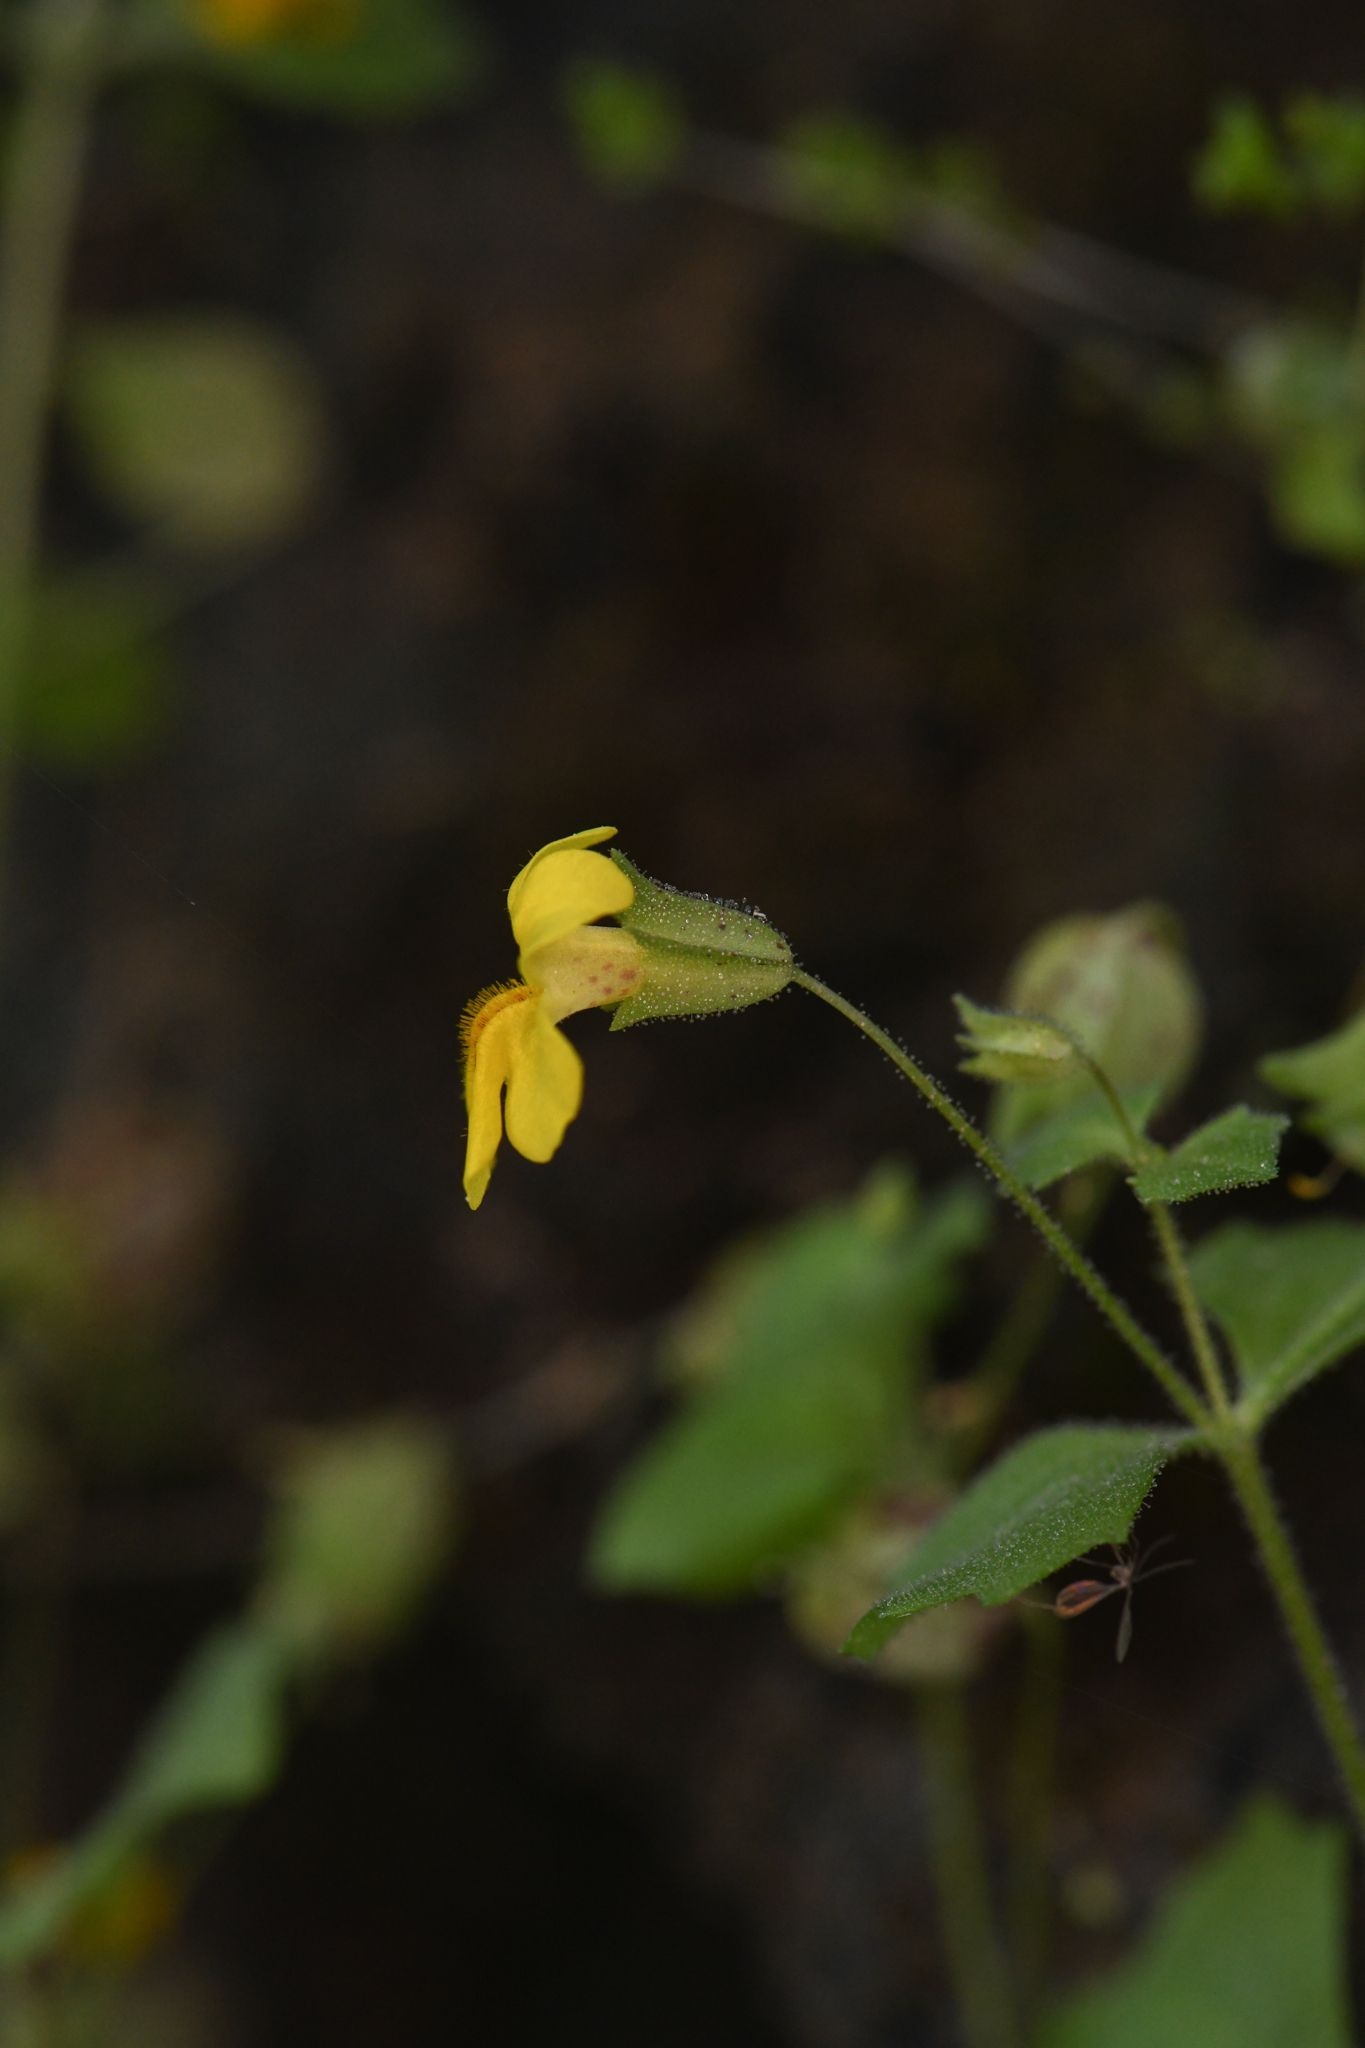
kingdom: Plantae
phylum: Tracheophyta
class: Magnoliopsida
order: Lamiales
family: Phrymaceae
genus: Erythranthe
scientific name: Erythranthe marmorata
